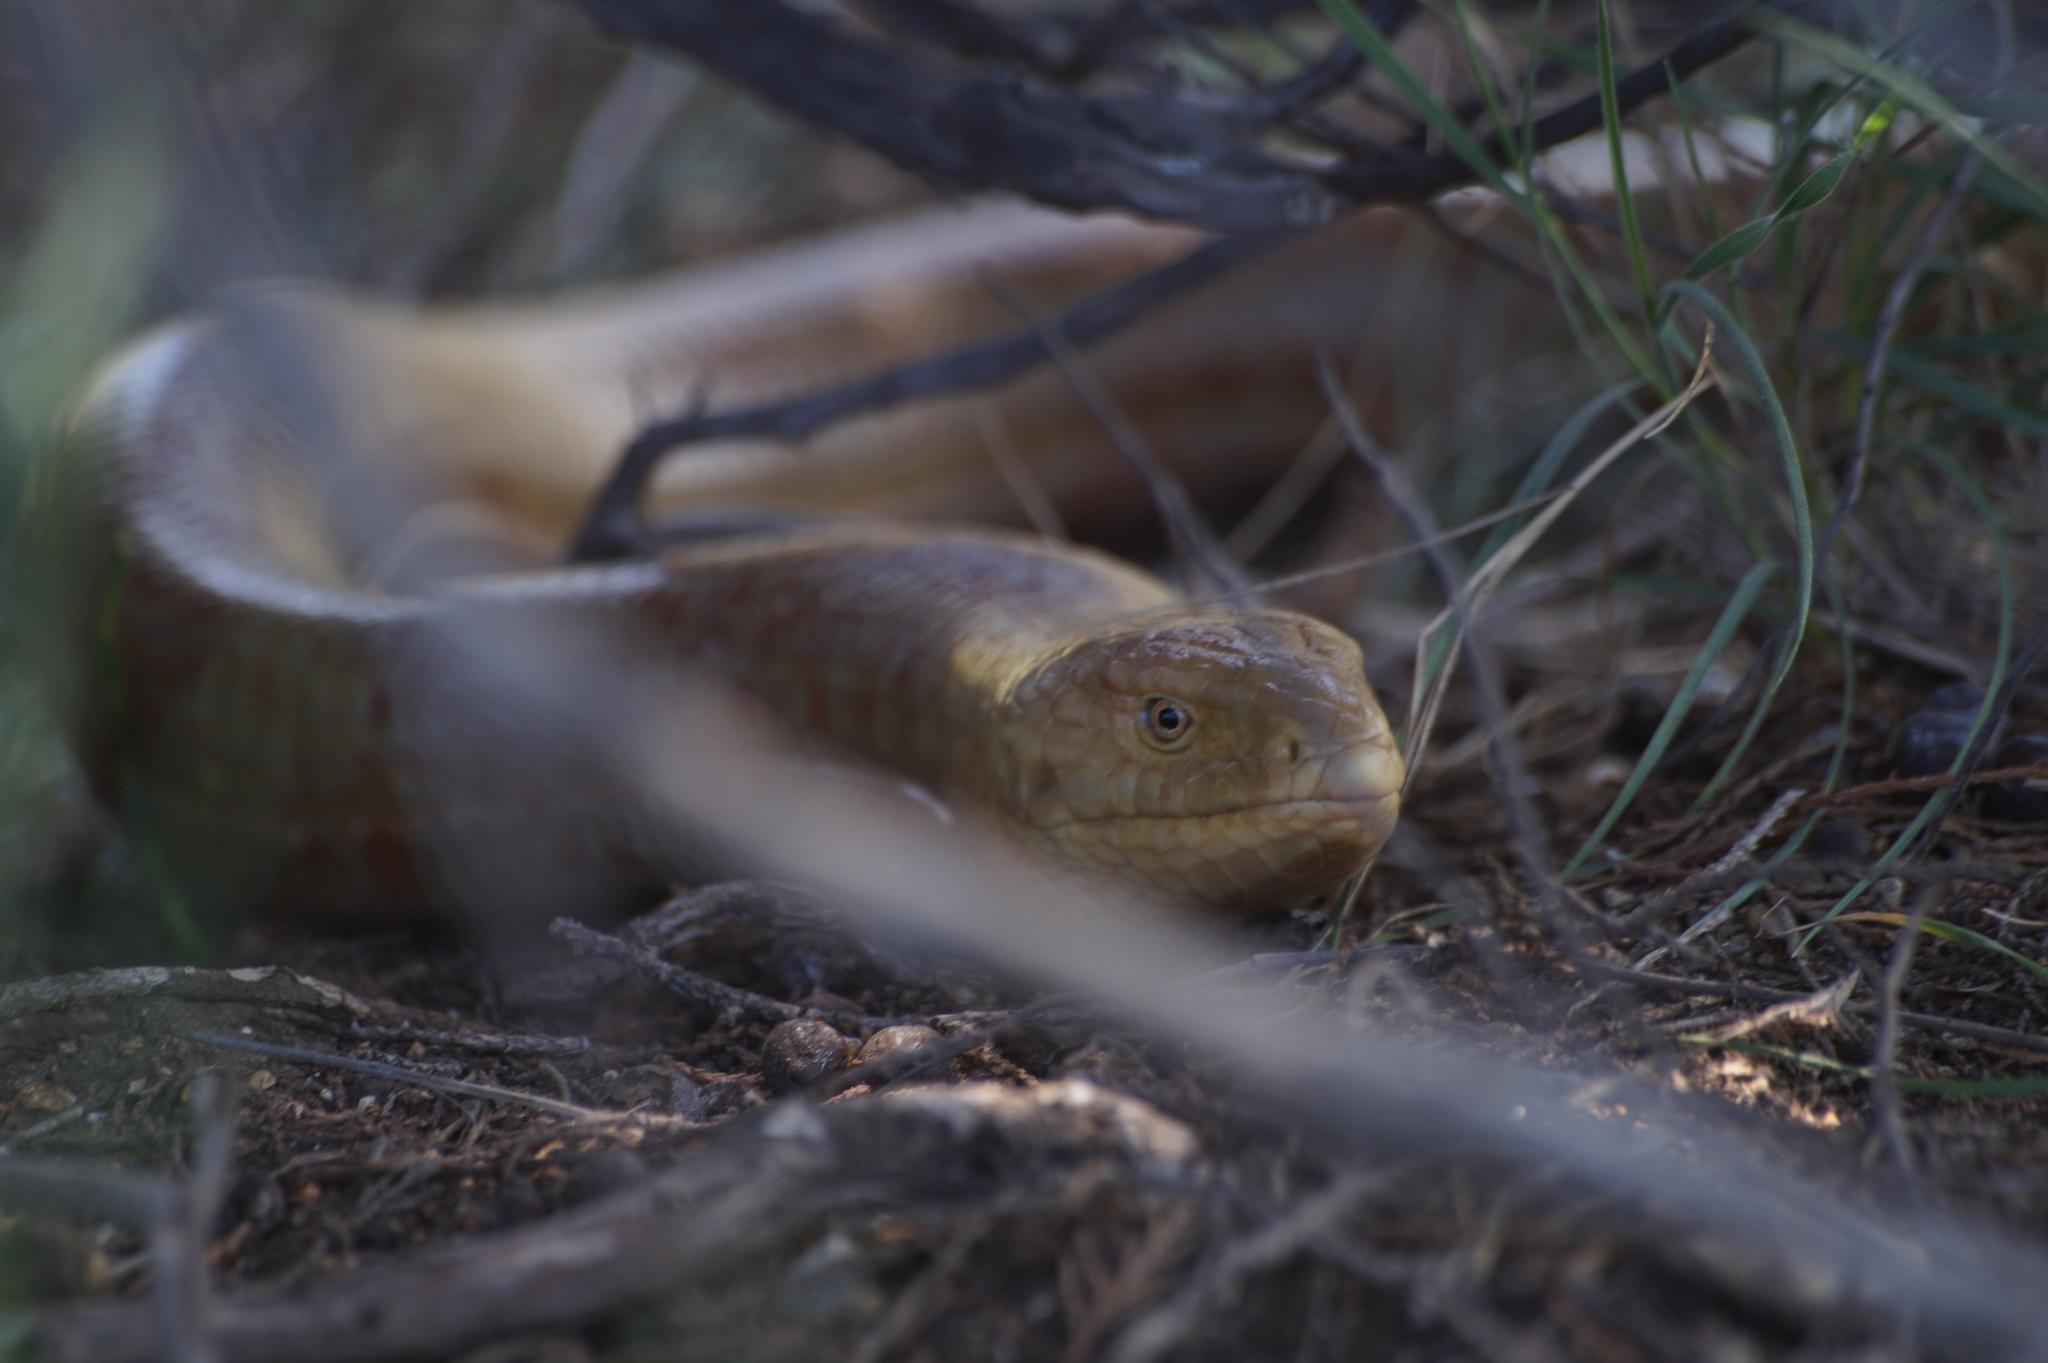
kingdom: Animalia
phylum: Chordata
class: Squamata
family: Anguidae
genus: Pseudopus
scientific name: Pseudopus apodus
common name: European glass lizard
